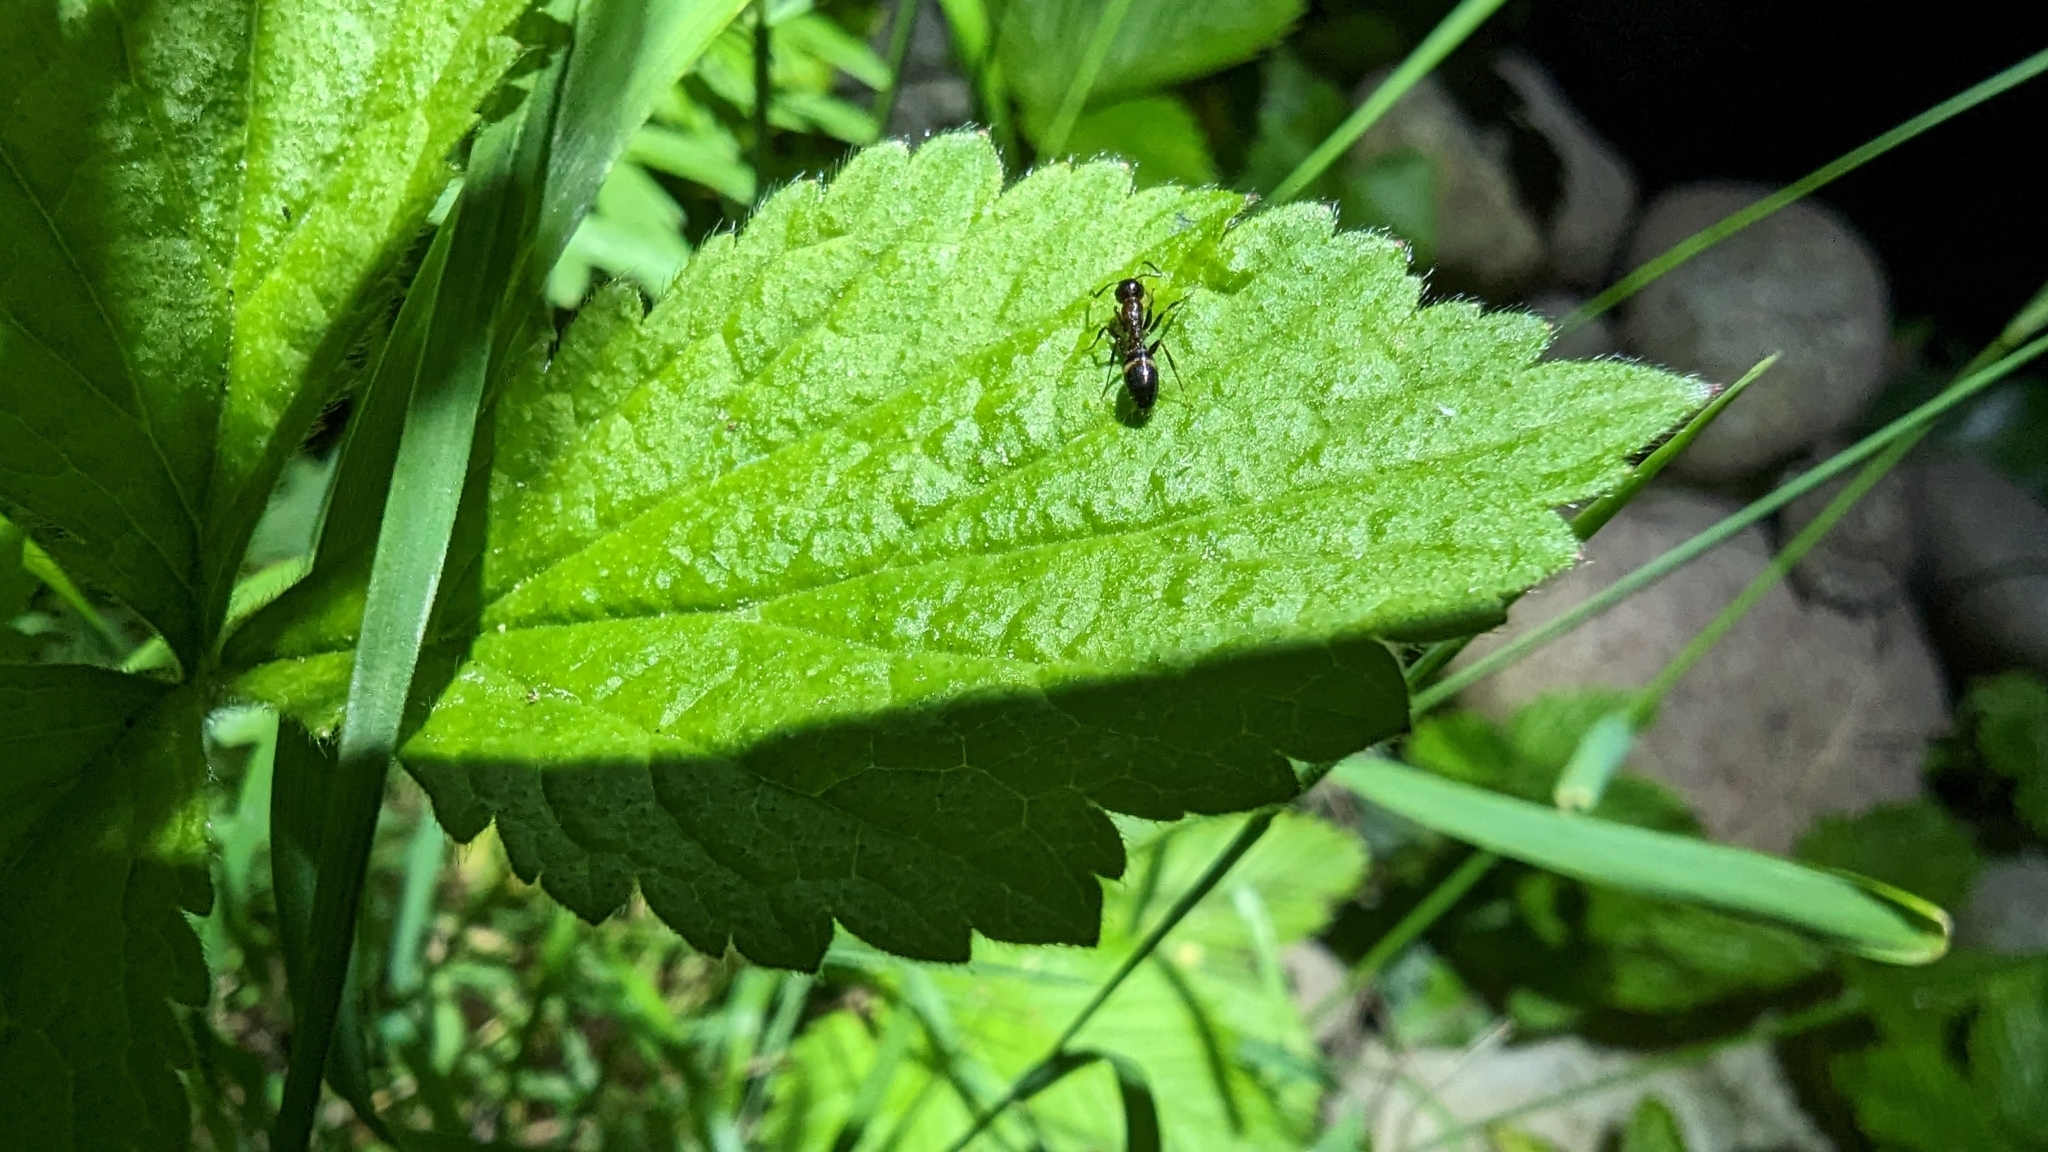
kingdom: Animalia
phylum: Arthropoda
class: Insecta
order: Hymenoptera
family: Formicidae
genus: Camponotus
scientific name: Camponotus truncatus
